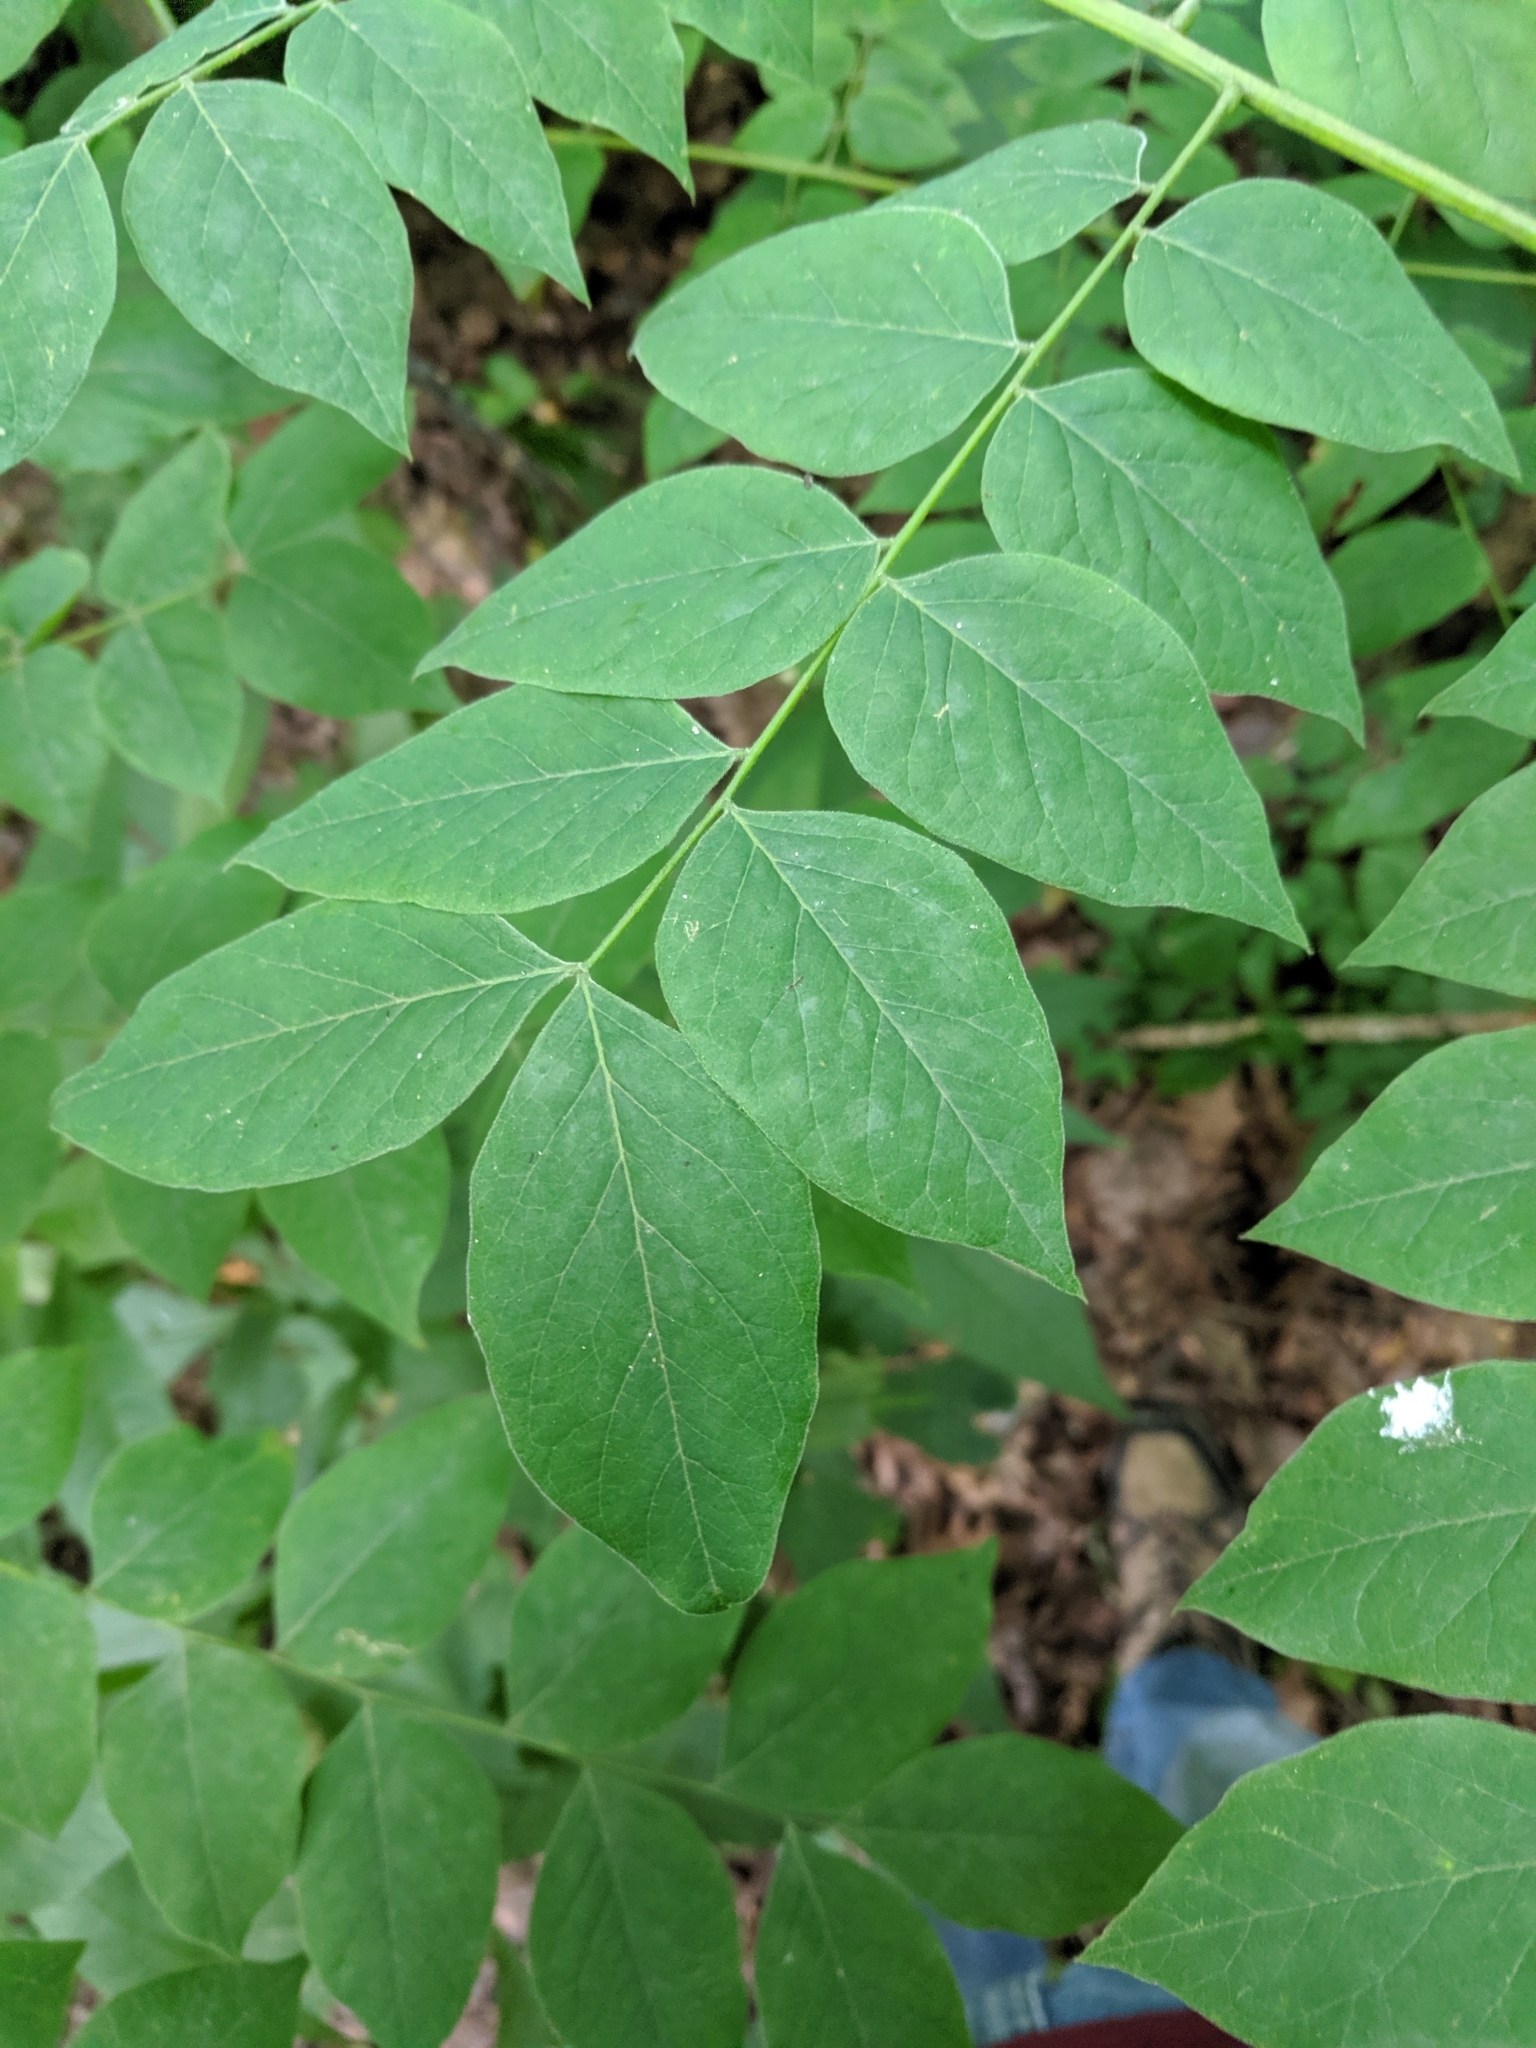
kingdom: Plantae
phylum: Tracheophyta
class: Magnoliopsida
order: Fabales
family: Fabaceae
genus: Gymnocladus
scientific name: Gymnocladus dioicus
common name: Kentucky coffee-tree
